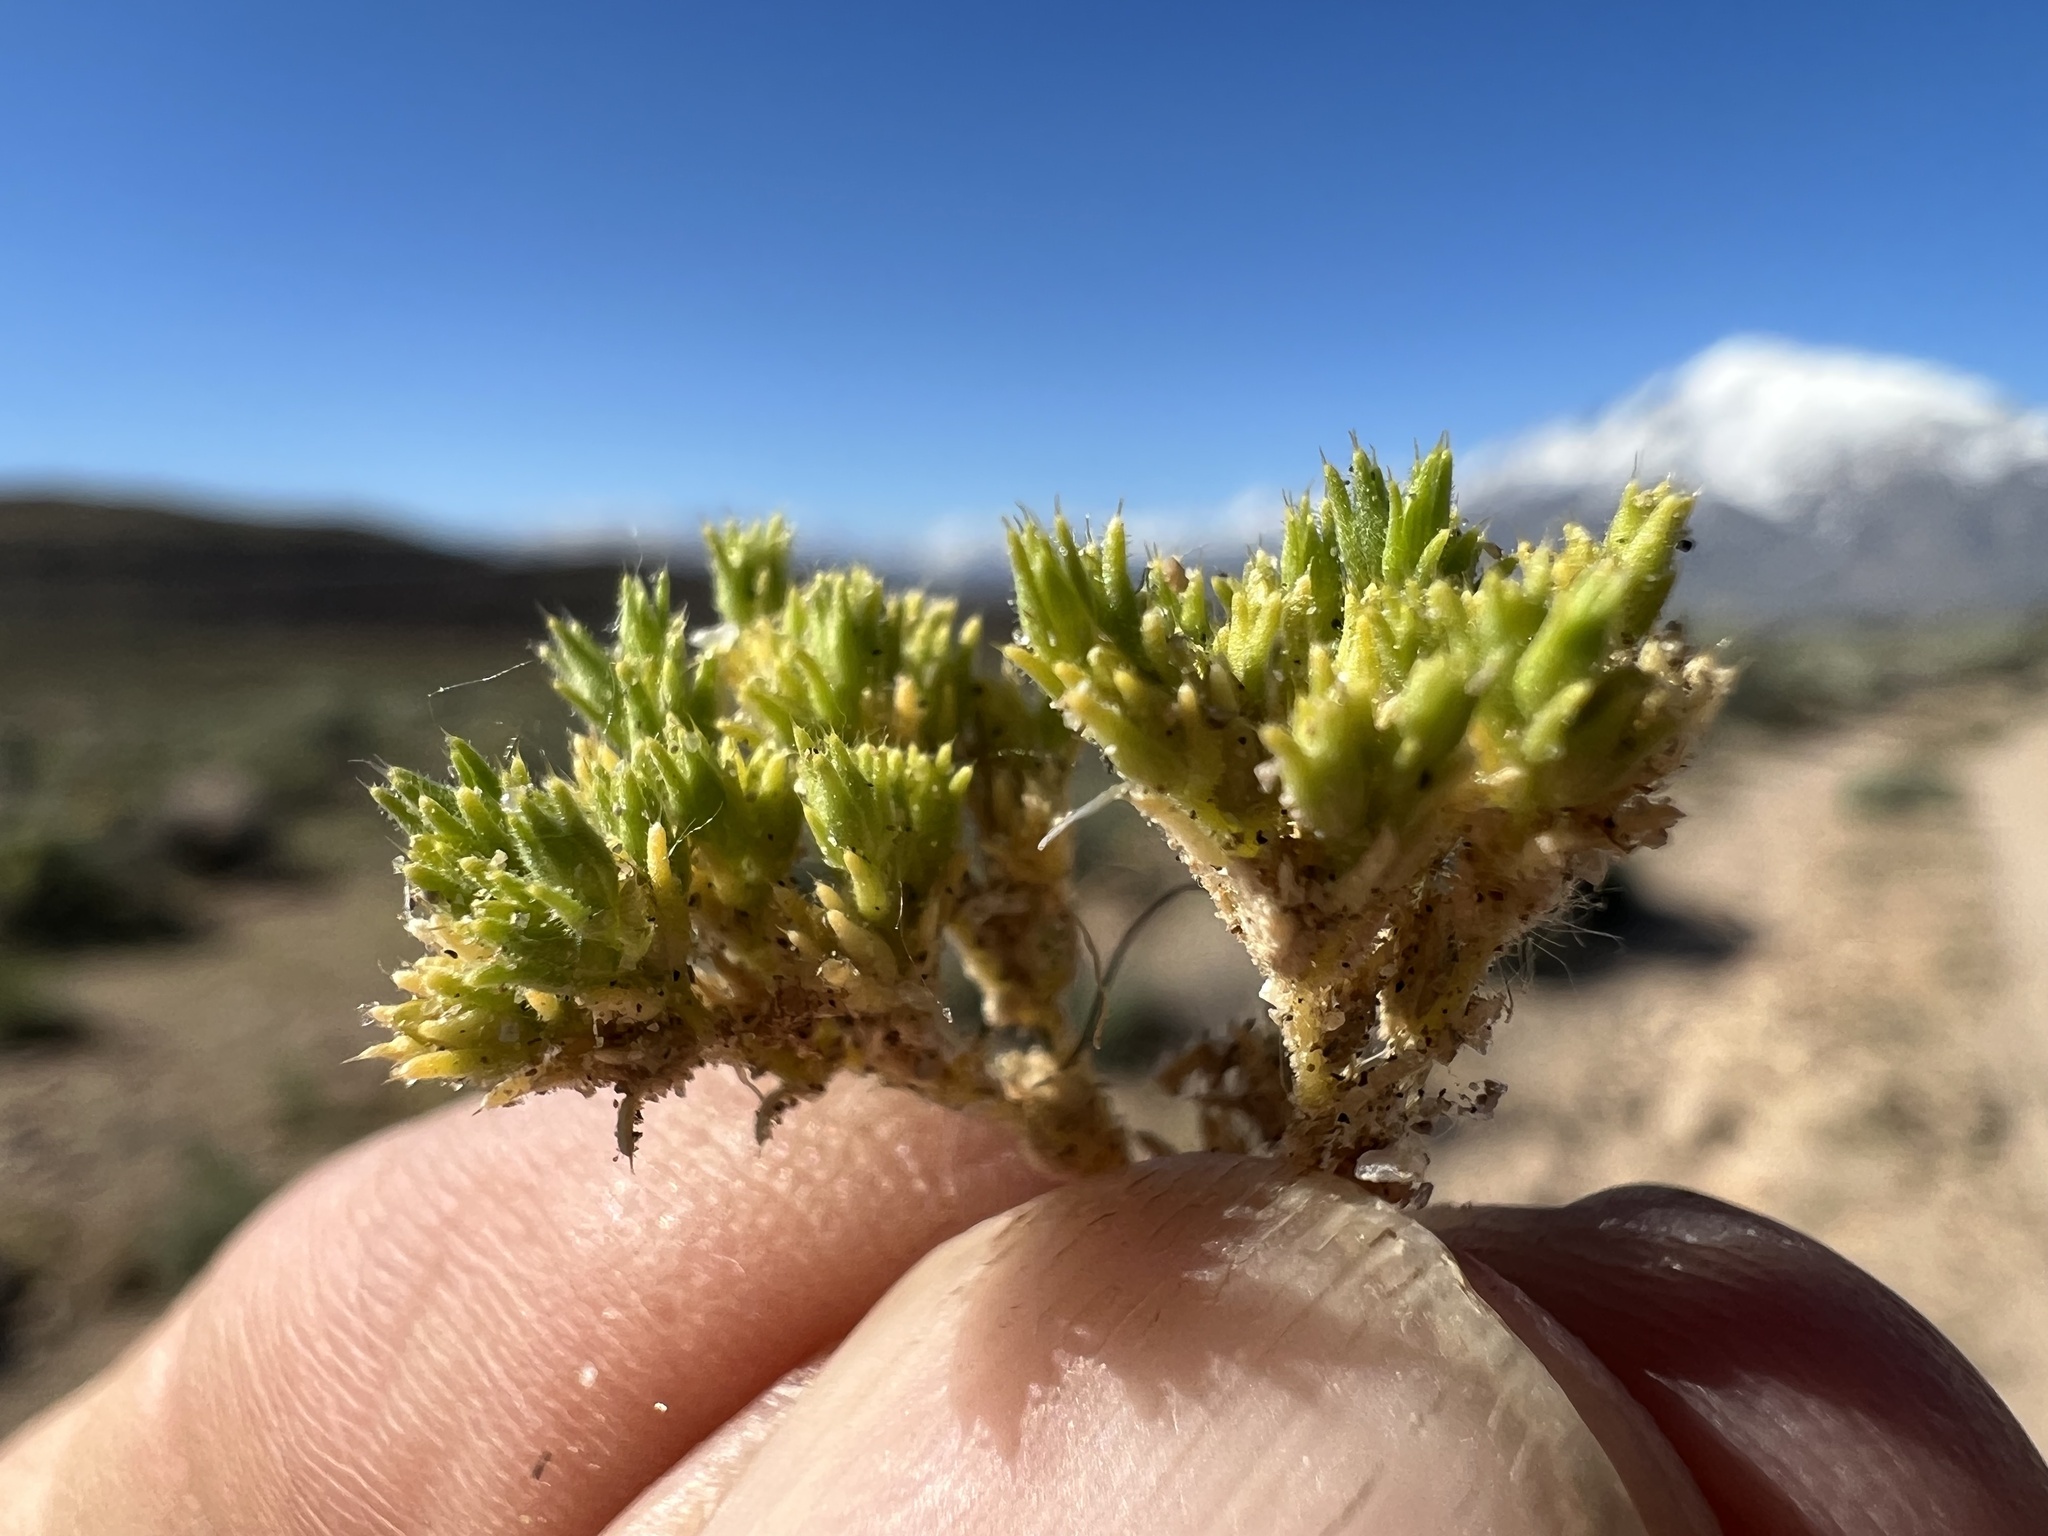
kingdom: Plantae
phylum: Tracheophyta
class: Magnoliopsida
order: Caryophyllales
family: Caryophyllaceae
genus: Loeflingia
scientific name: Loeflingia squarrosa
